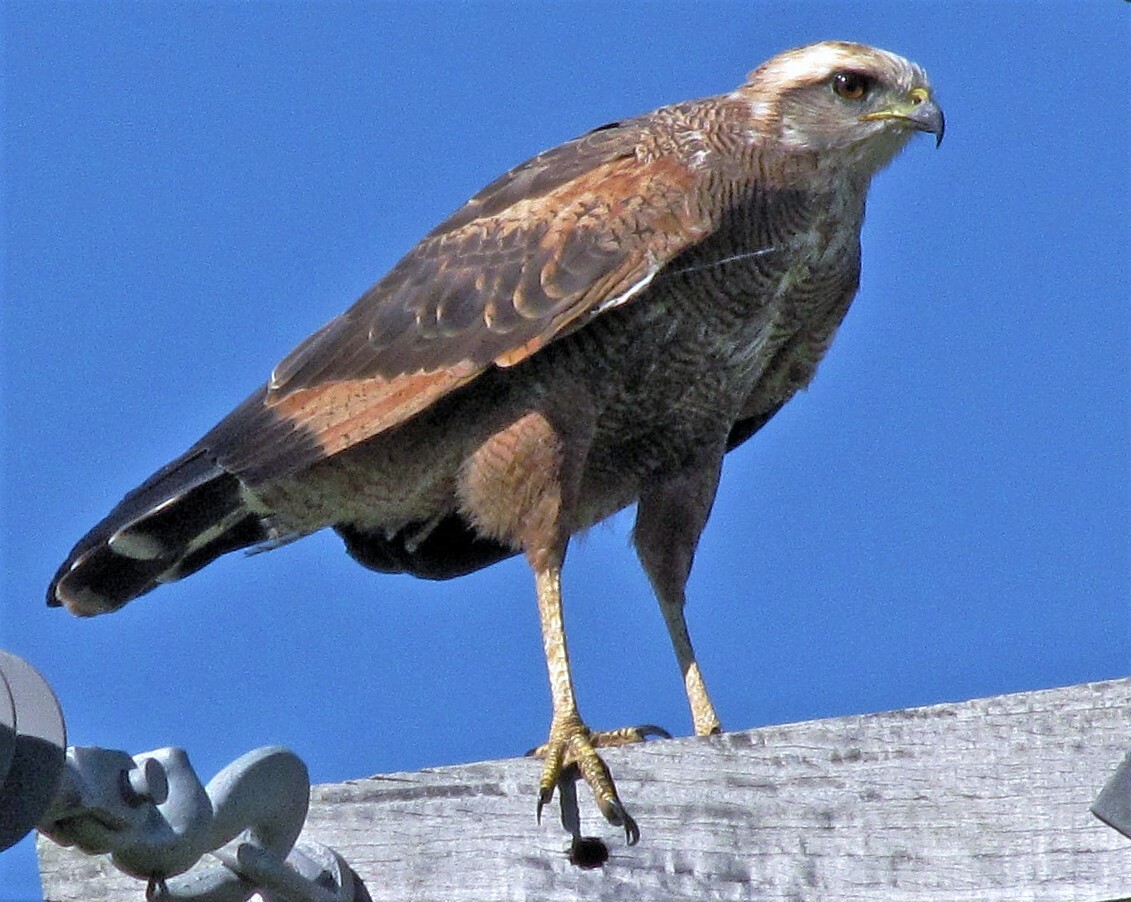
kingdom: Animalia
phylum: Chordata
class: Aves
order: Accipitriformes
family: Accipitridae
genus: Buteogallus
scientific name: Buteogallus meridionalis
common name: Savanna hawk
